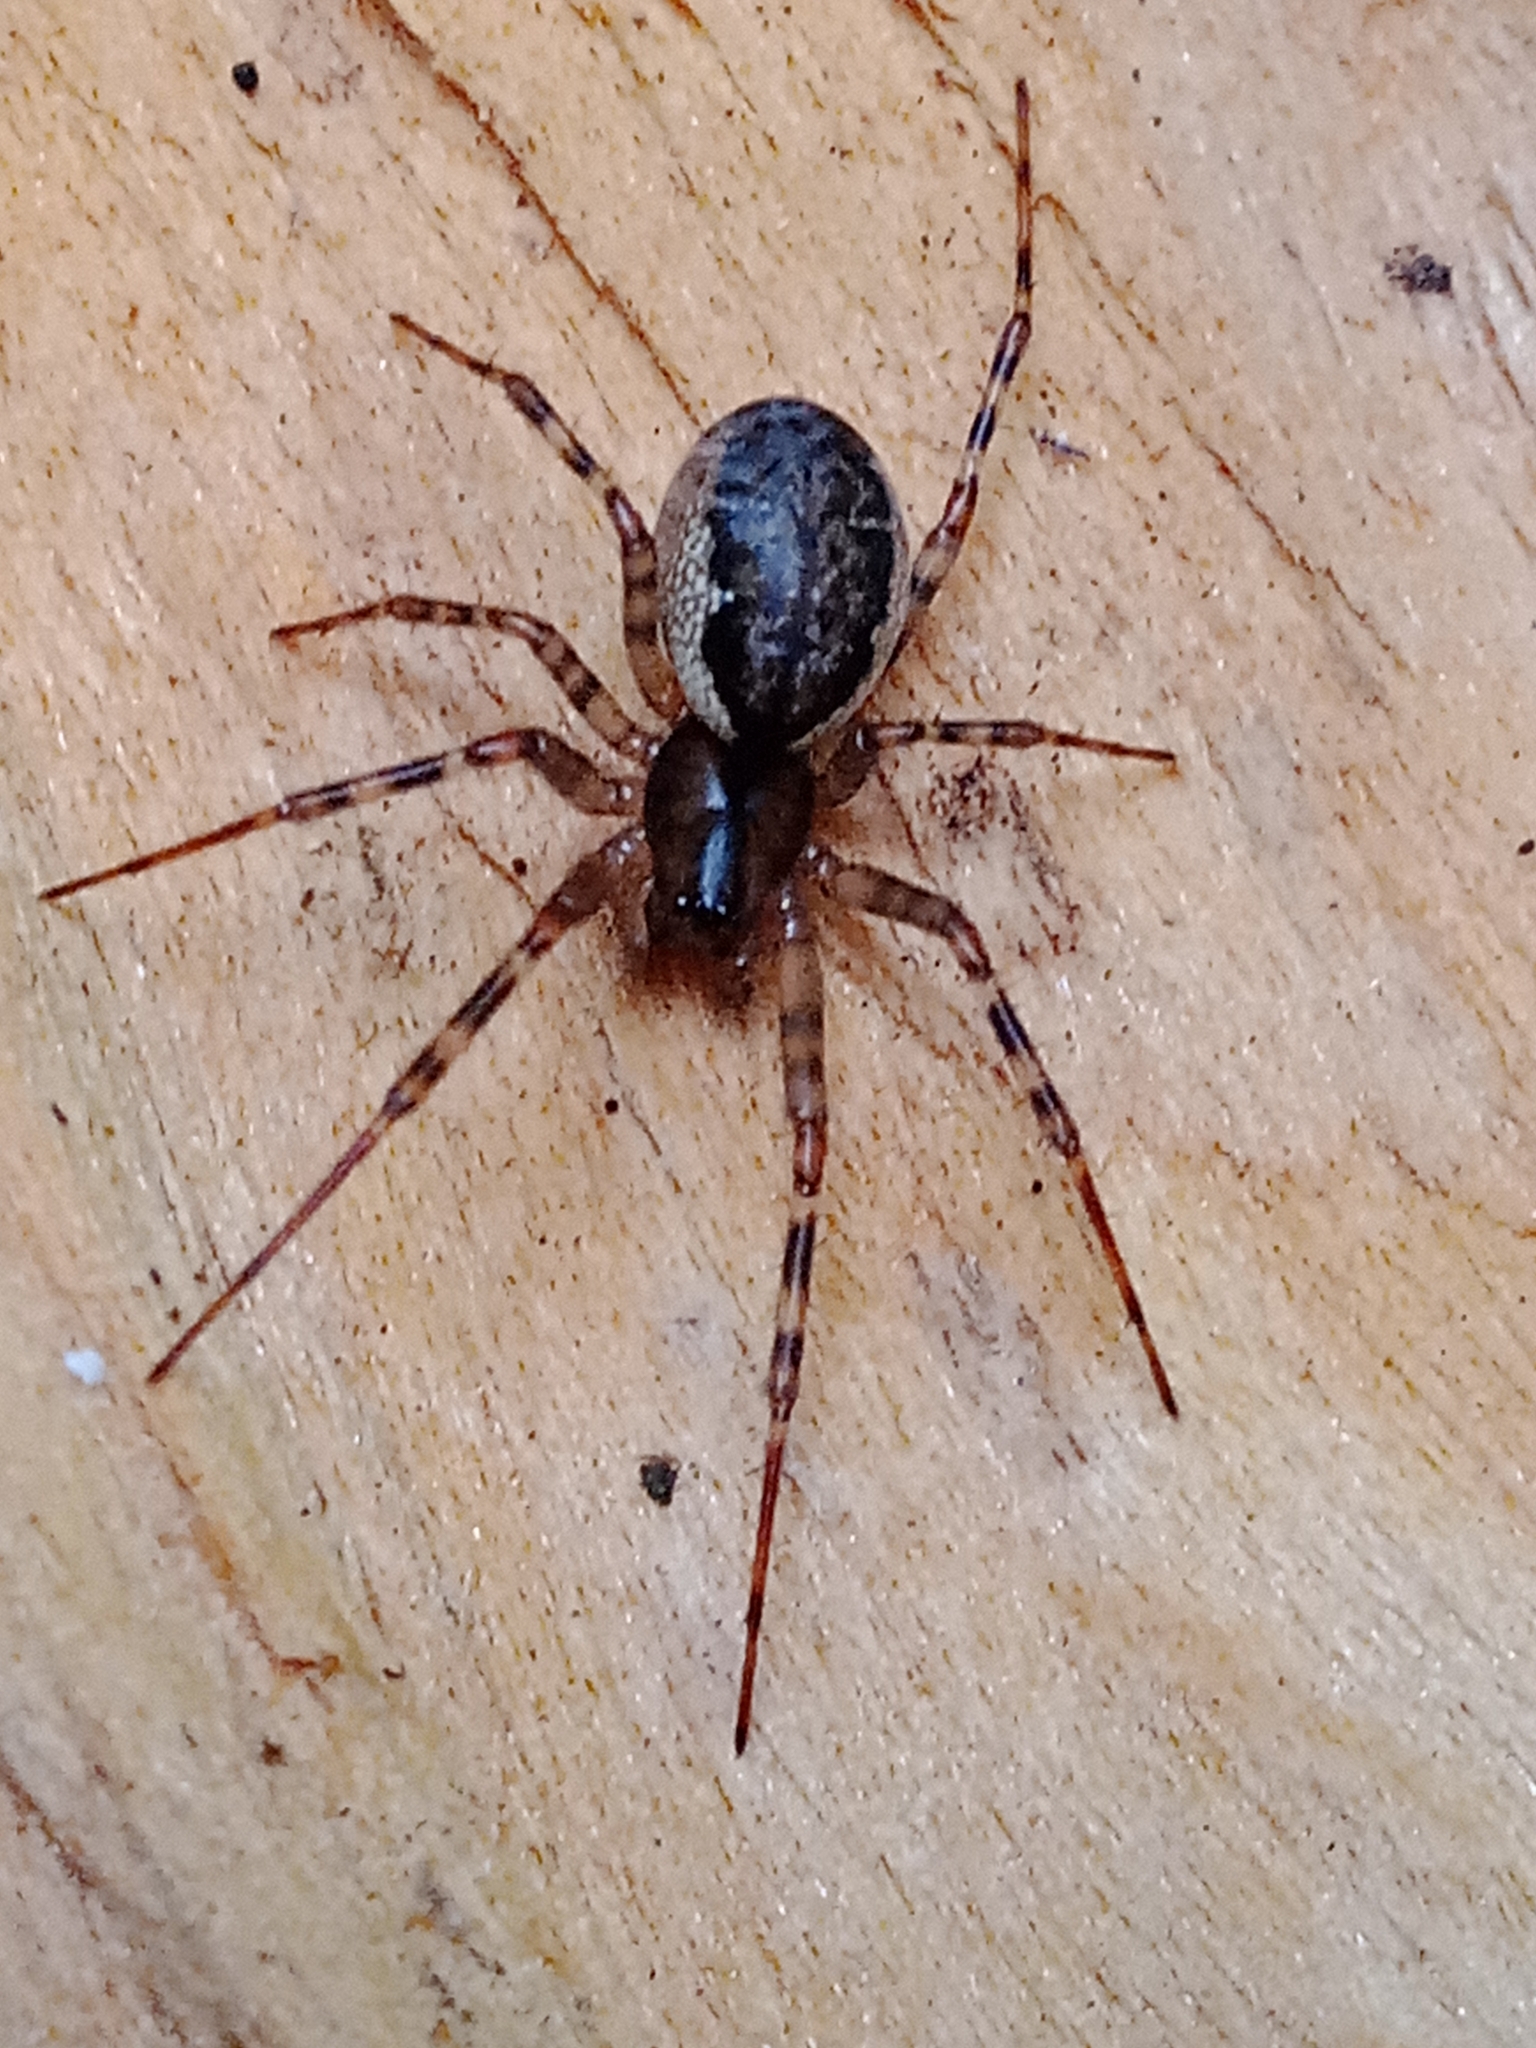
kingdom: Animalia
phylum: Arthropoda
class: Arachnida
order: Araneae
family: Linyphiidae
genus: Neriene
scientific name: Neriene montana
